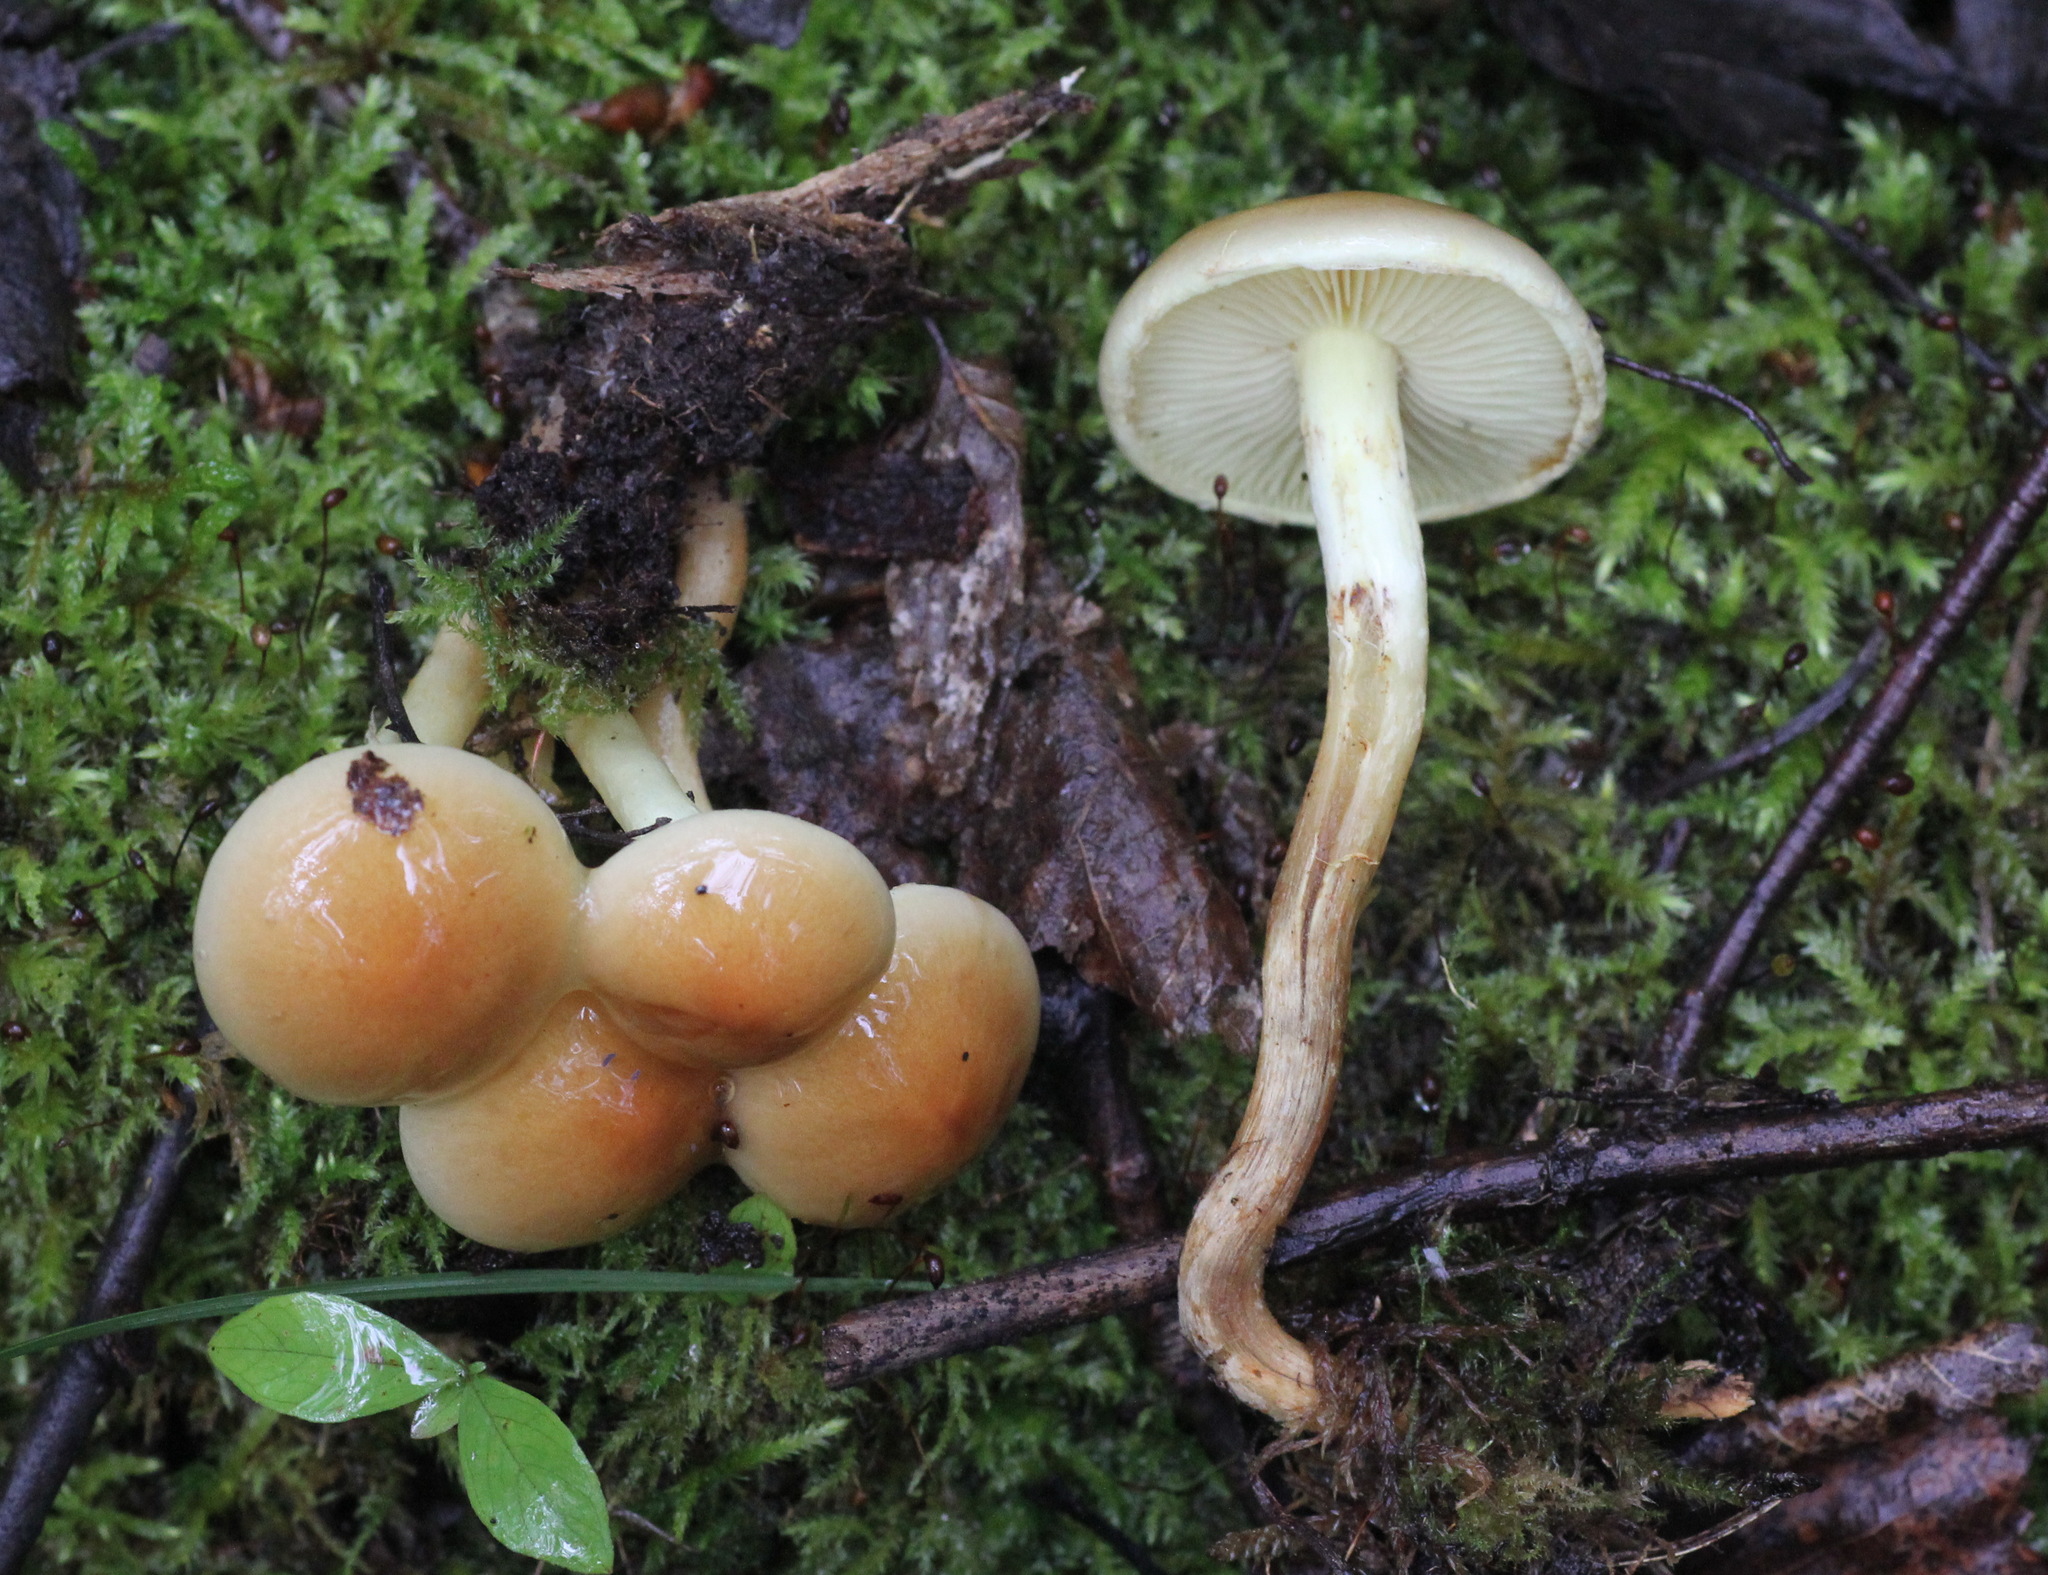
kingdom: Fungi
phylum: Basidiomycota
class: Agaricomycetes
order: Agaricales
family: Strophariaceae
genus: Hypholoma
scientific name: Hypholoma lateritium
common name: Brick caps
